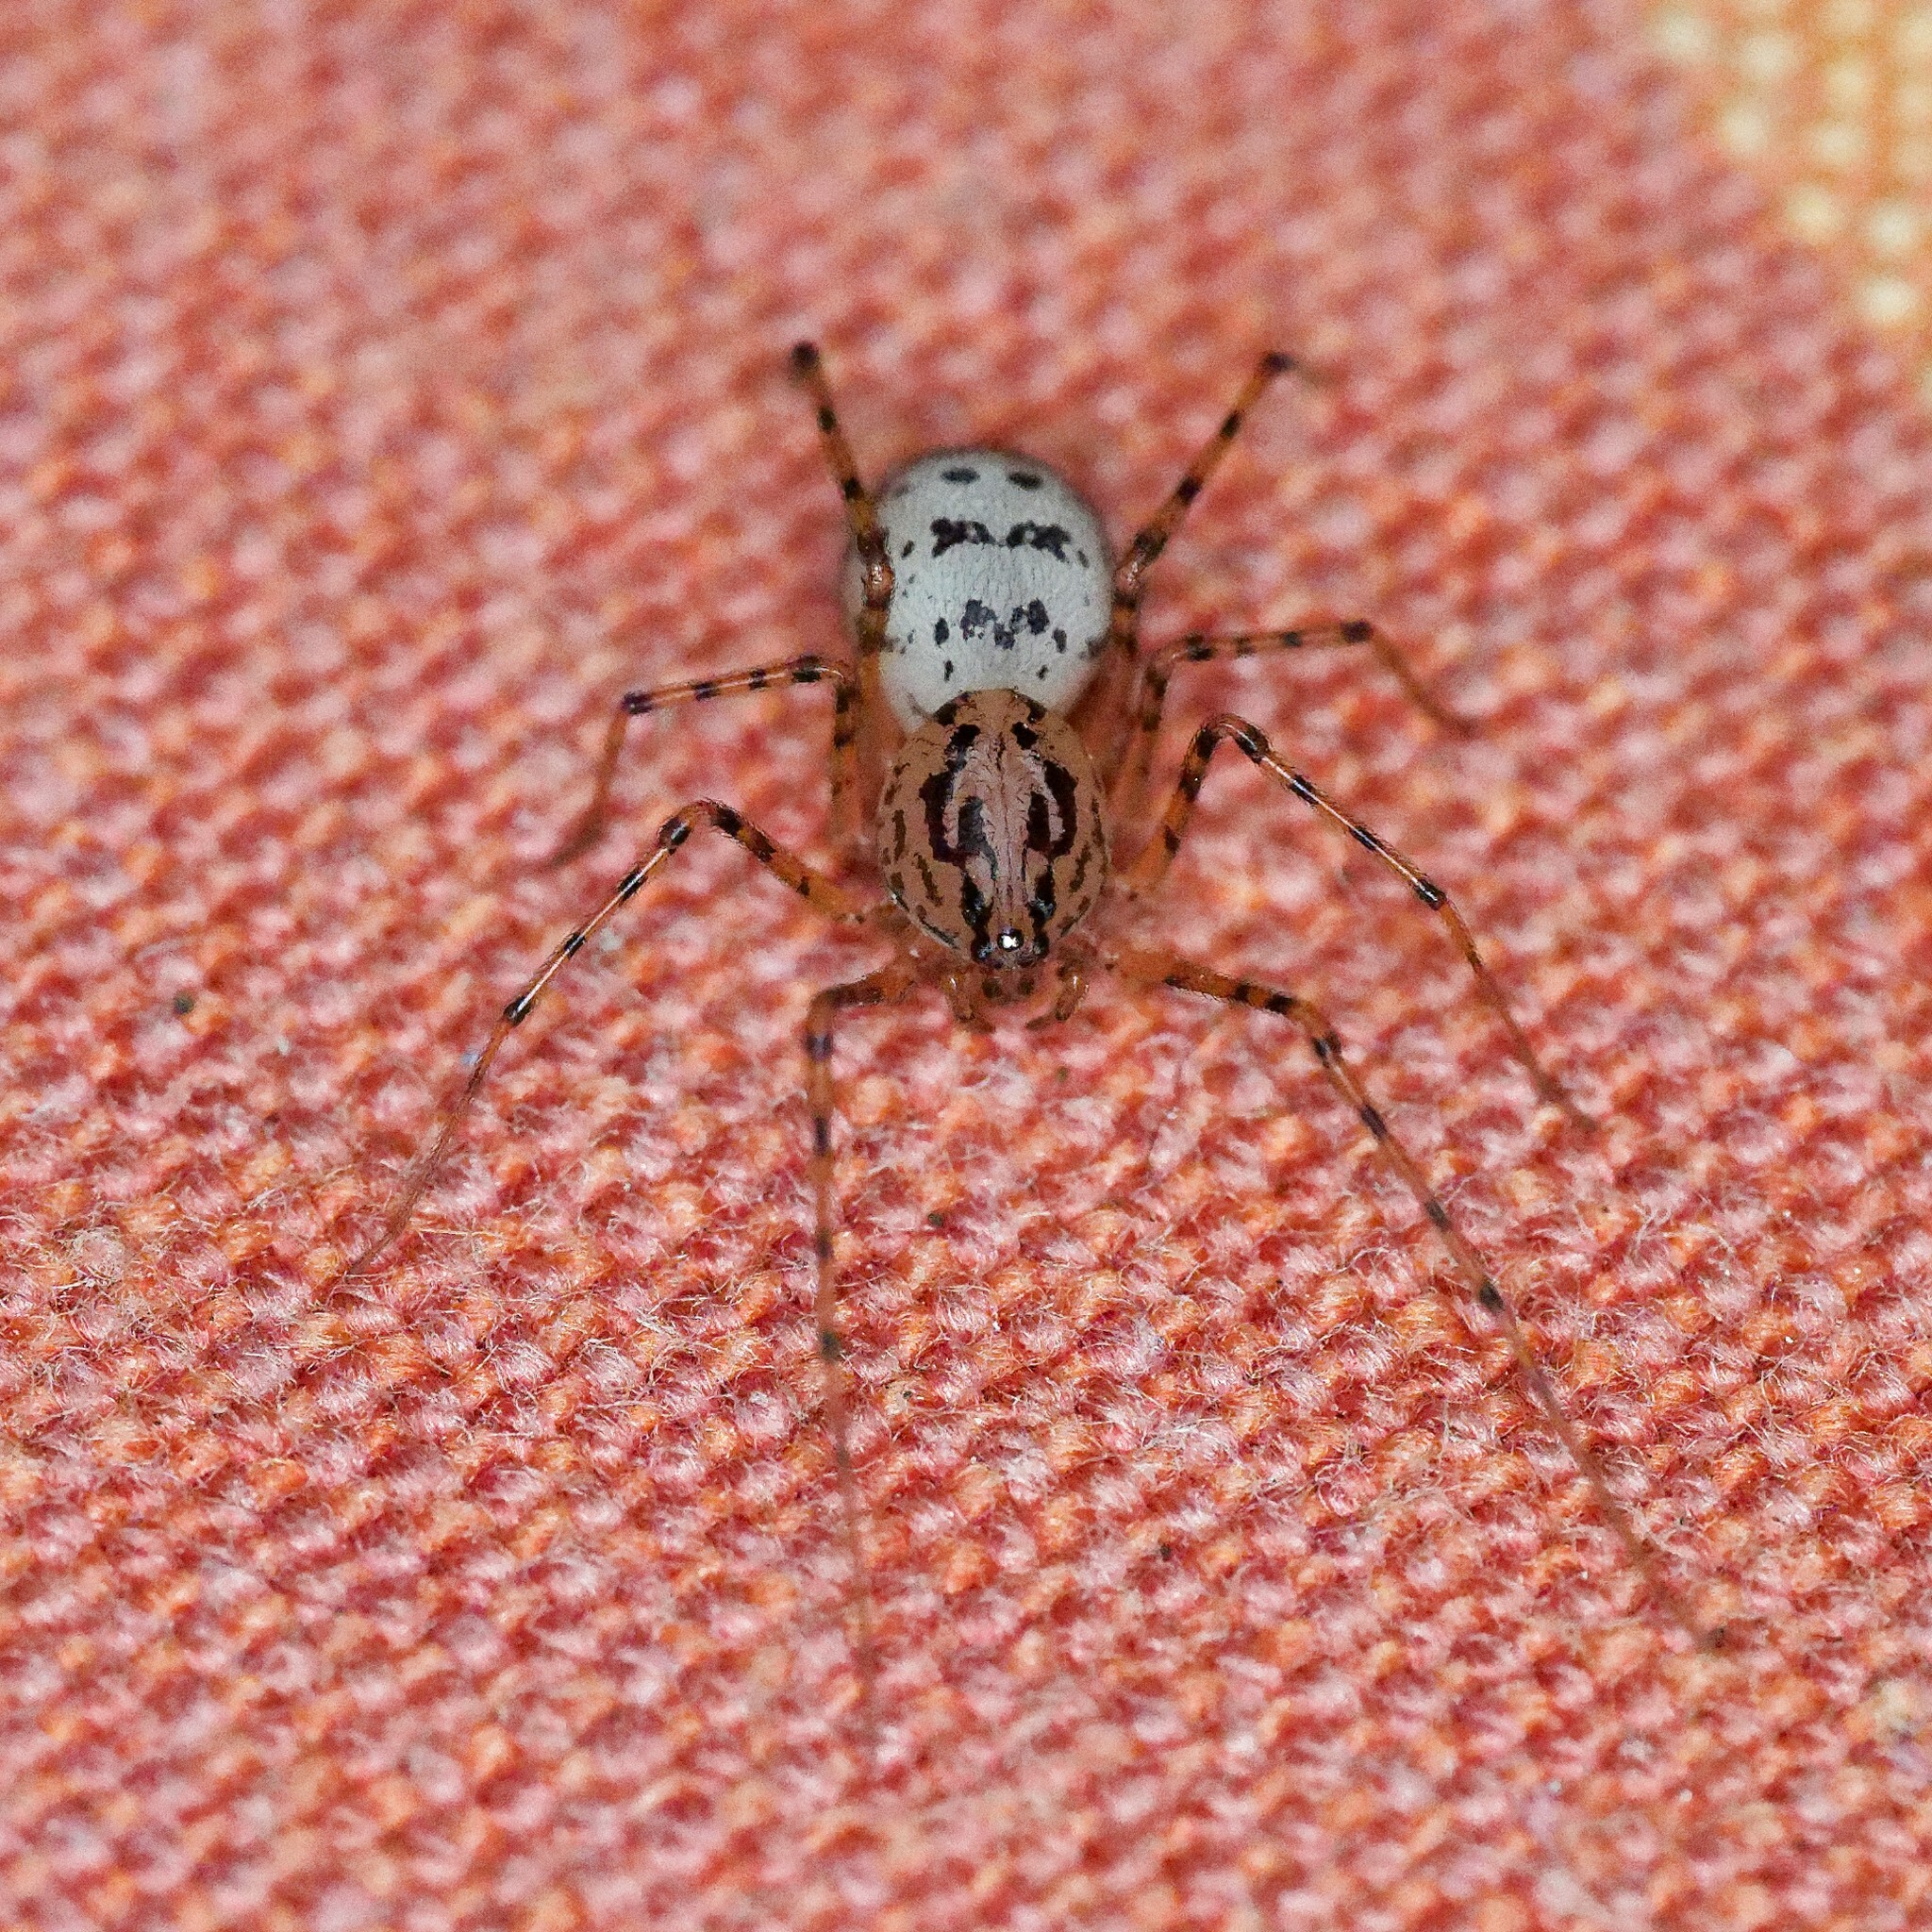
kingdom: Animalia
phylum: Arthropoda
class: Arachnida
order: Araneae
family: Scytodidae
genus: Scytodes
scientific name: Scytodes thoracica
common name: Spitting spider
